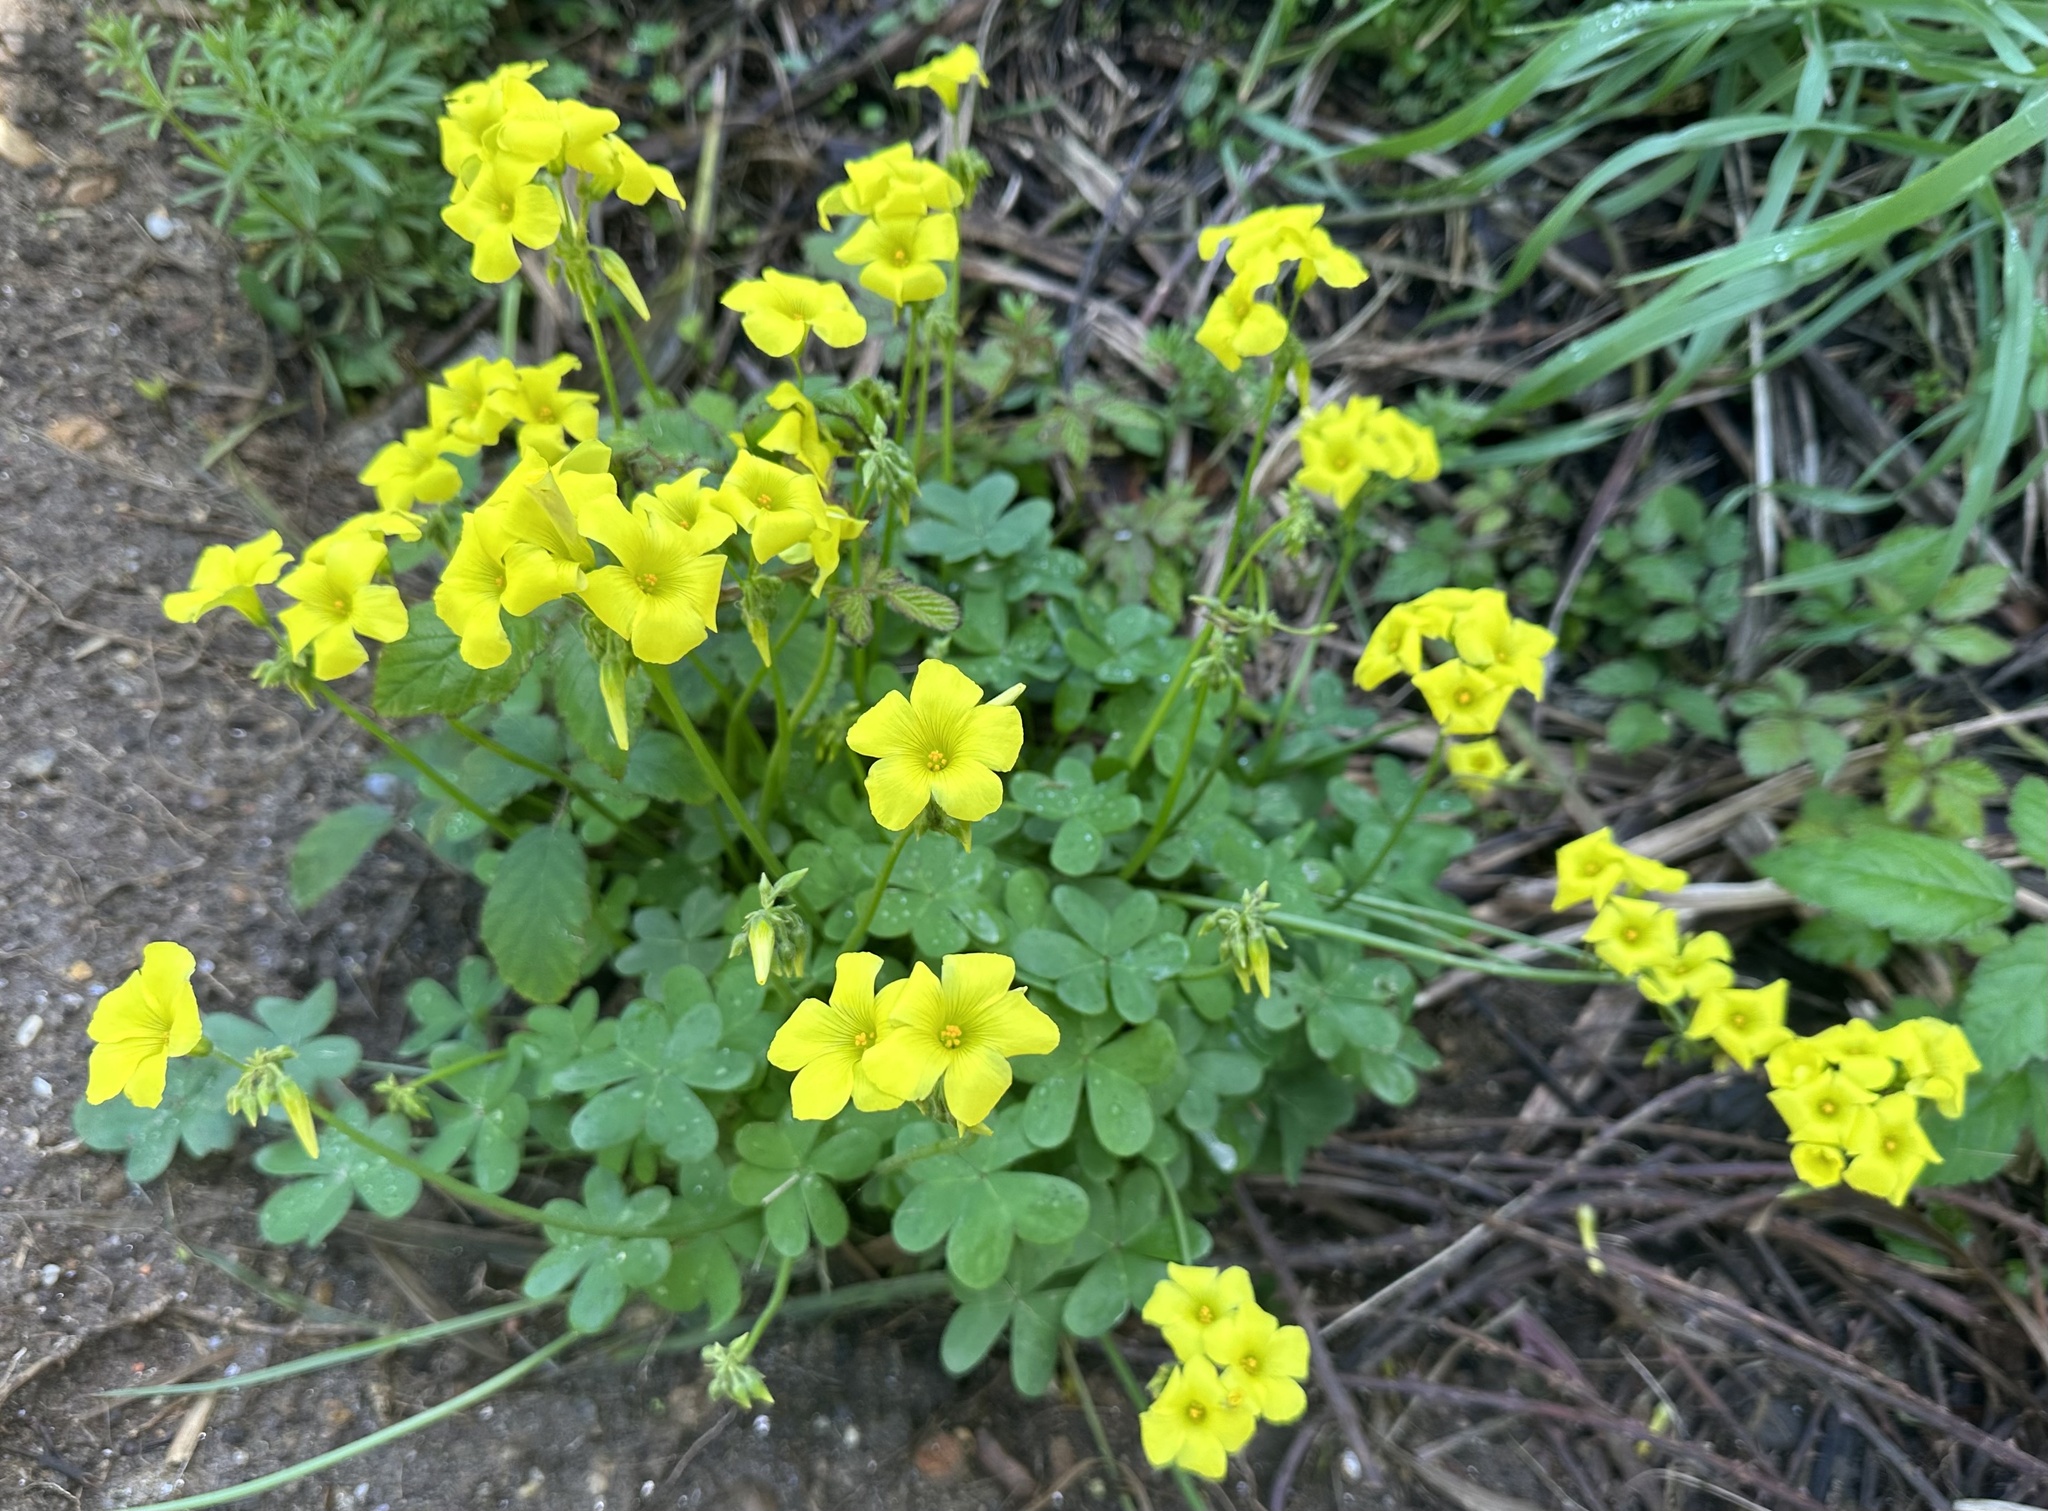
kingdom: Plantae
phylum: Tracheophyta
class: Magnoliopsida
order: Oxalidales
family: Oxalidaceae
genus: Oxalis
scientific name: Oxalis pes-caprae
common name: Bermuda-buttercup
